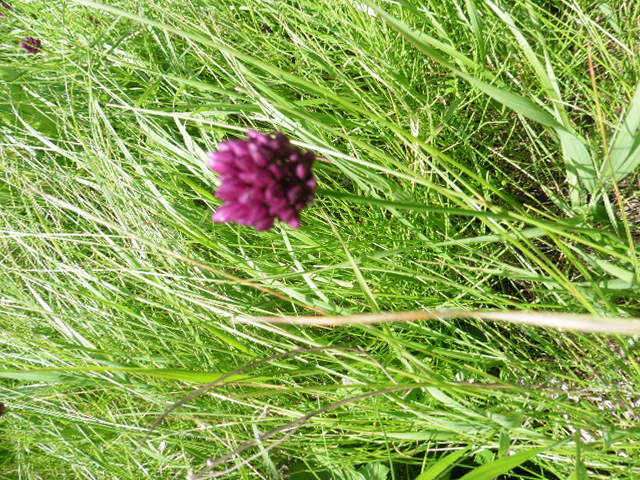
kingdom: Plantae
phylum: Tracheophyta
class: Liliopsida
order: Asparagales
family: Amaryllidaceae
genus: Allium
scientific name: Allium rotundum
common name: Sand leek
